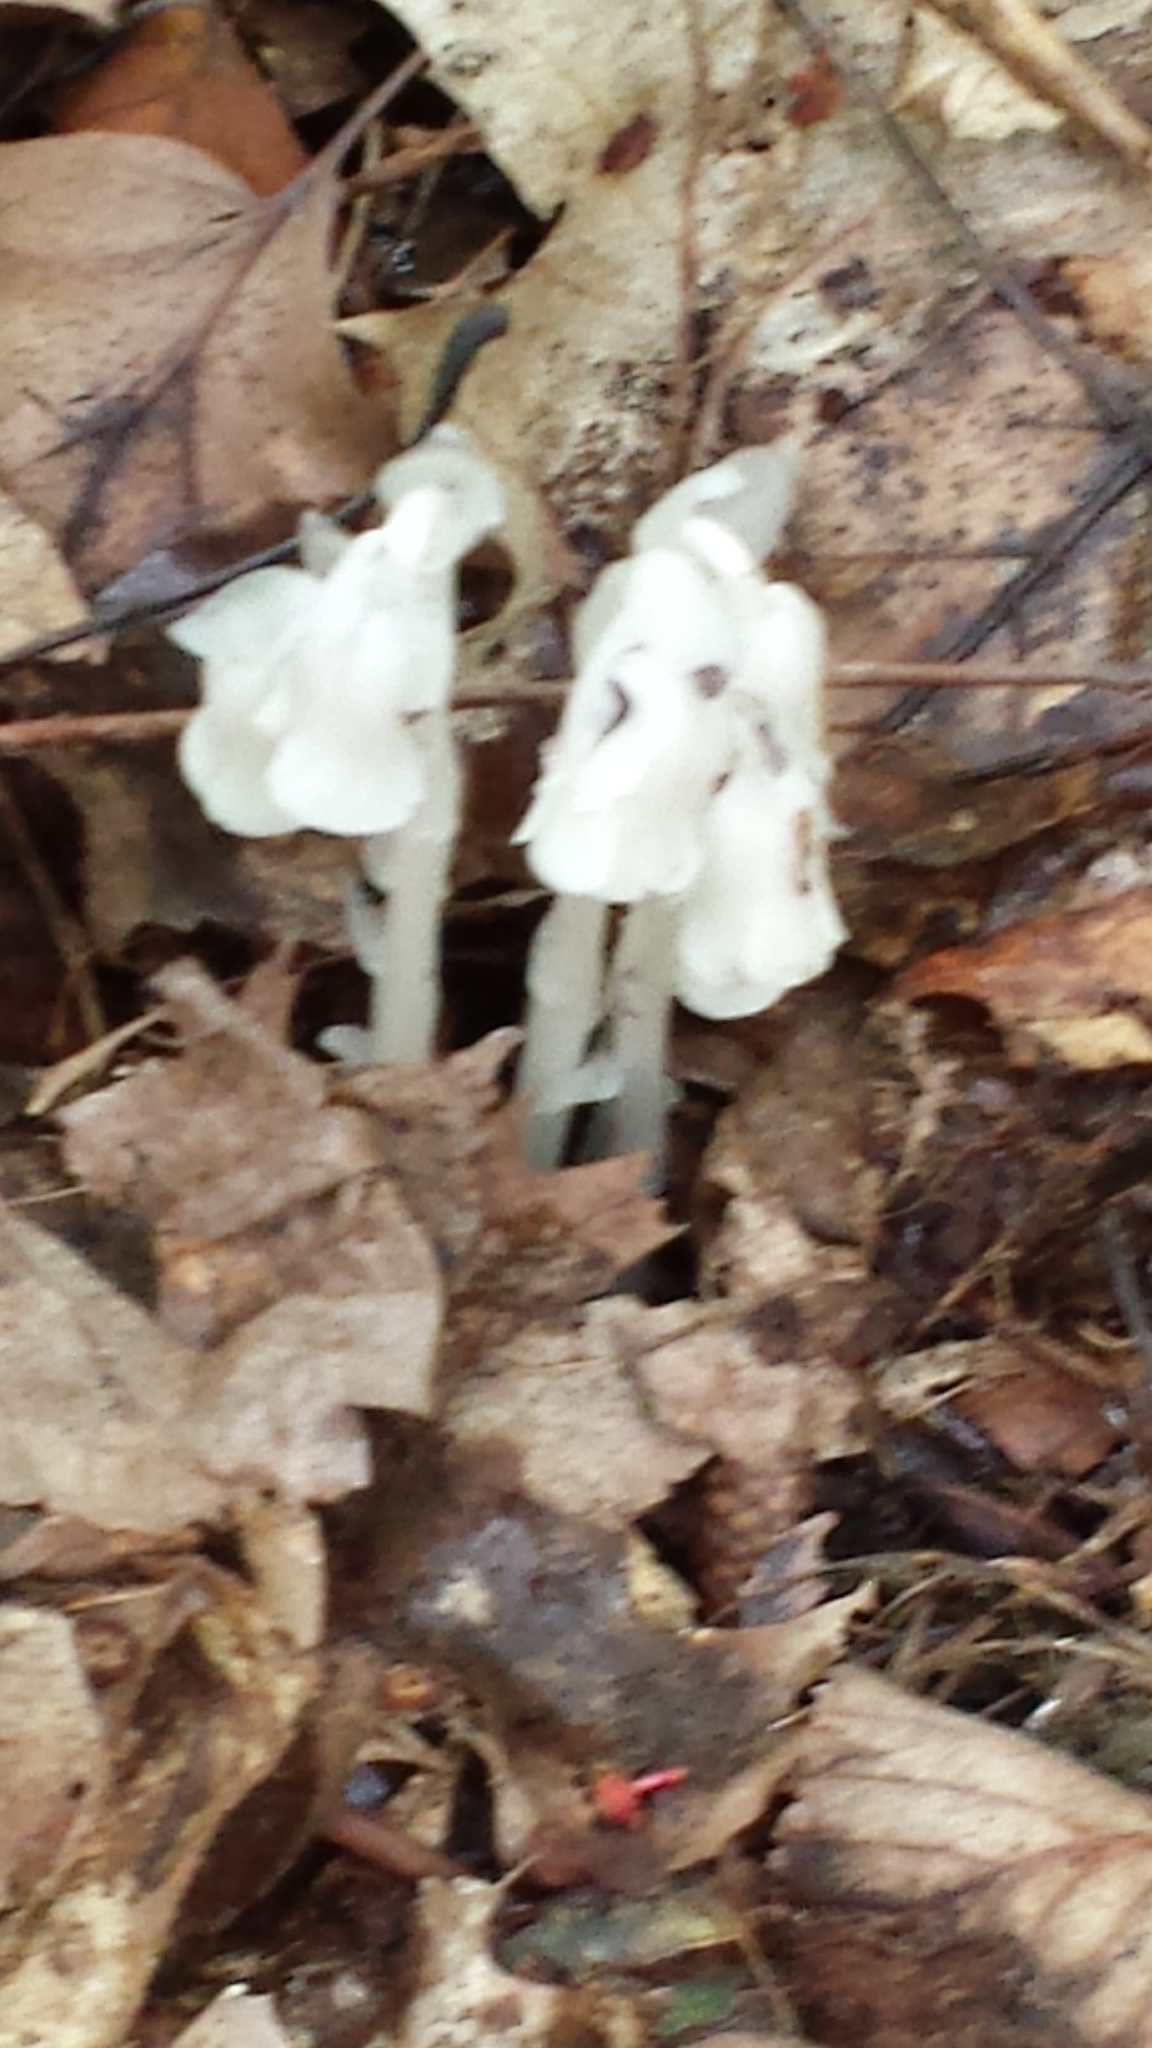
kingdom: Plantae
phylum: Tracheophyta
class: Magnoliopsida
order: Ericales
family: Ericaceae
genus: Monotropa
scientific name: Monotropa uniflora
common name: Convulsion root
